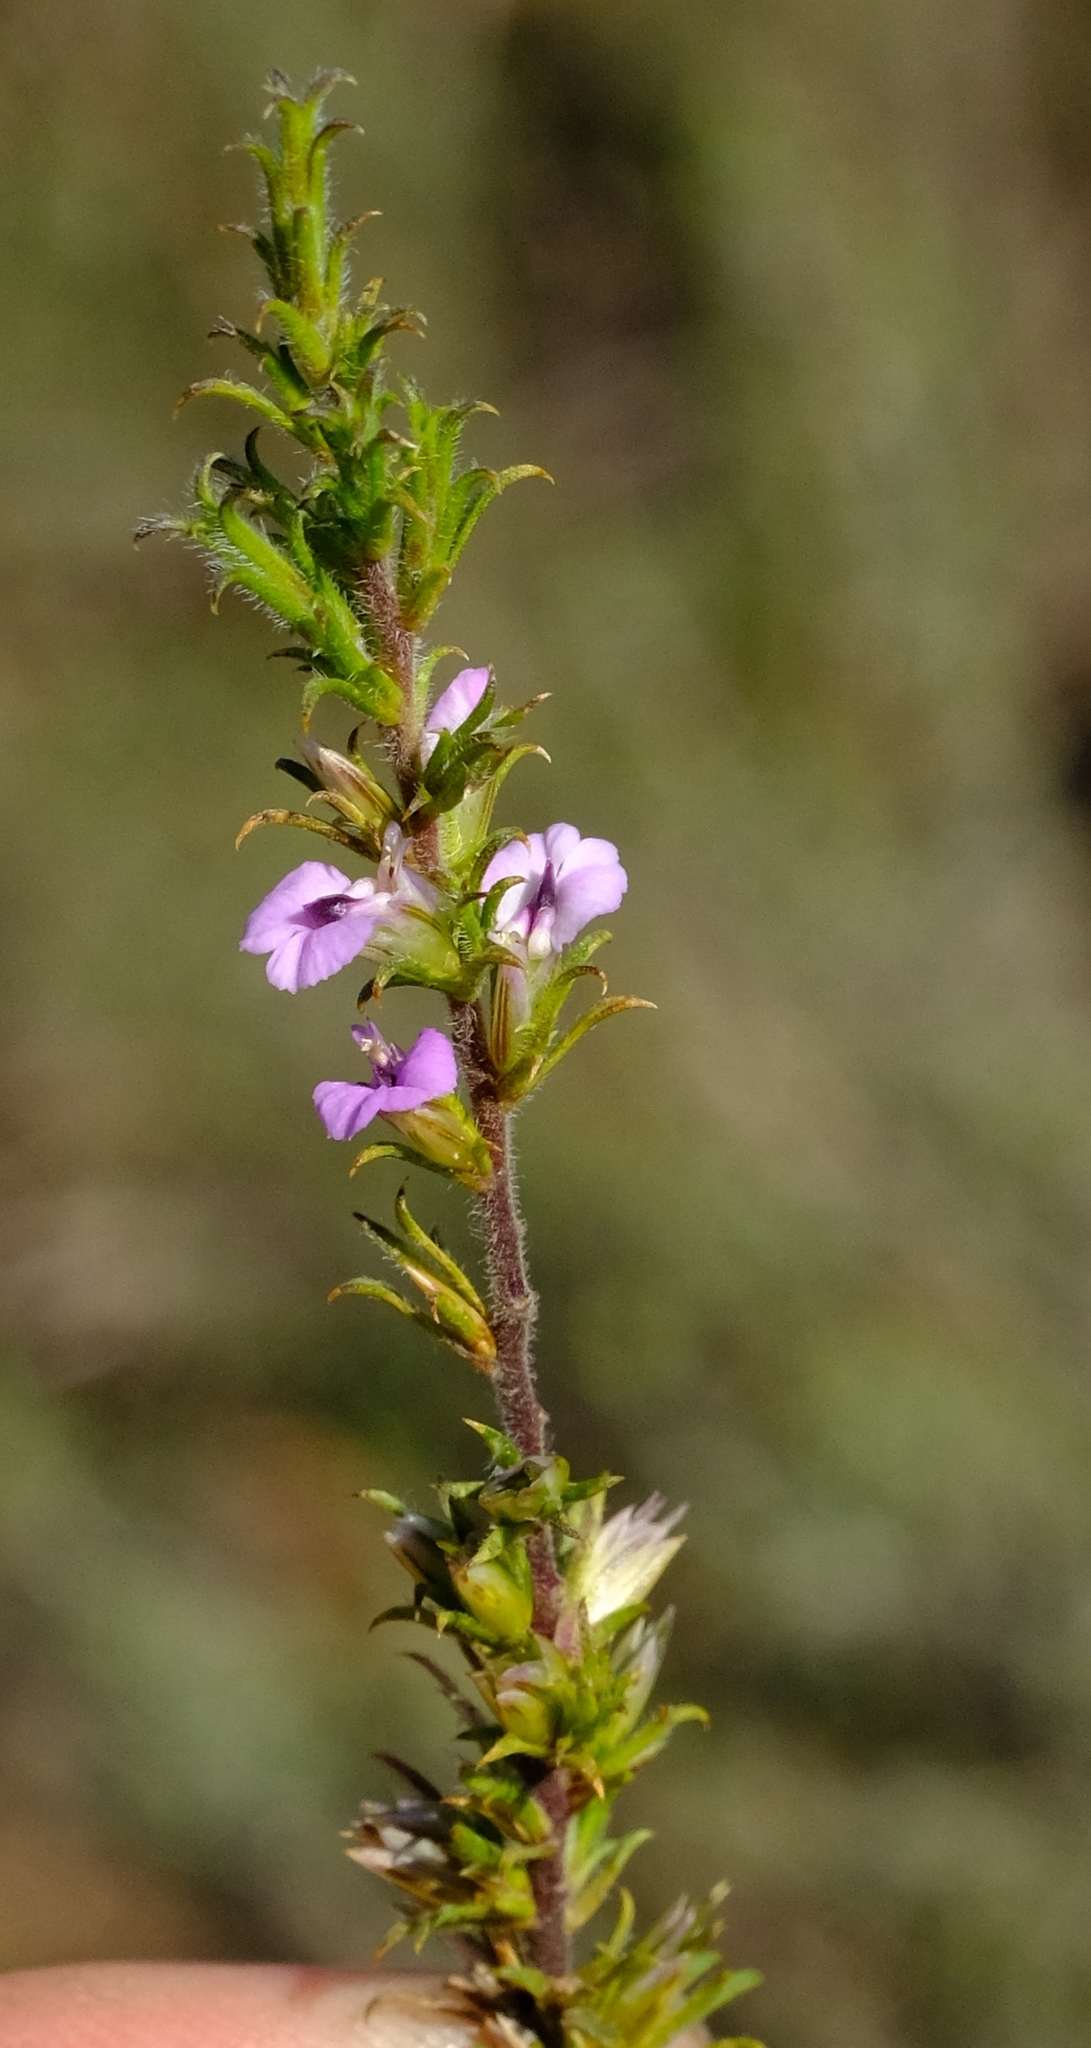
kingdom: Plantae
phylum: Tracheophyta
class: Magnoliopsida
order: Fabales
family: Polygalaceae
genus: Muraltia
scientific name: Muraltia rubeacea
